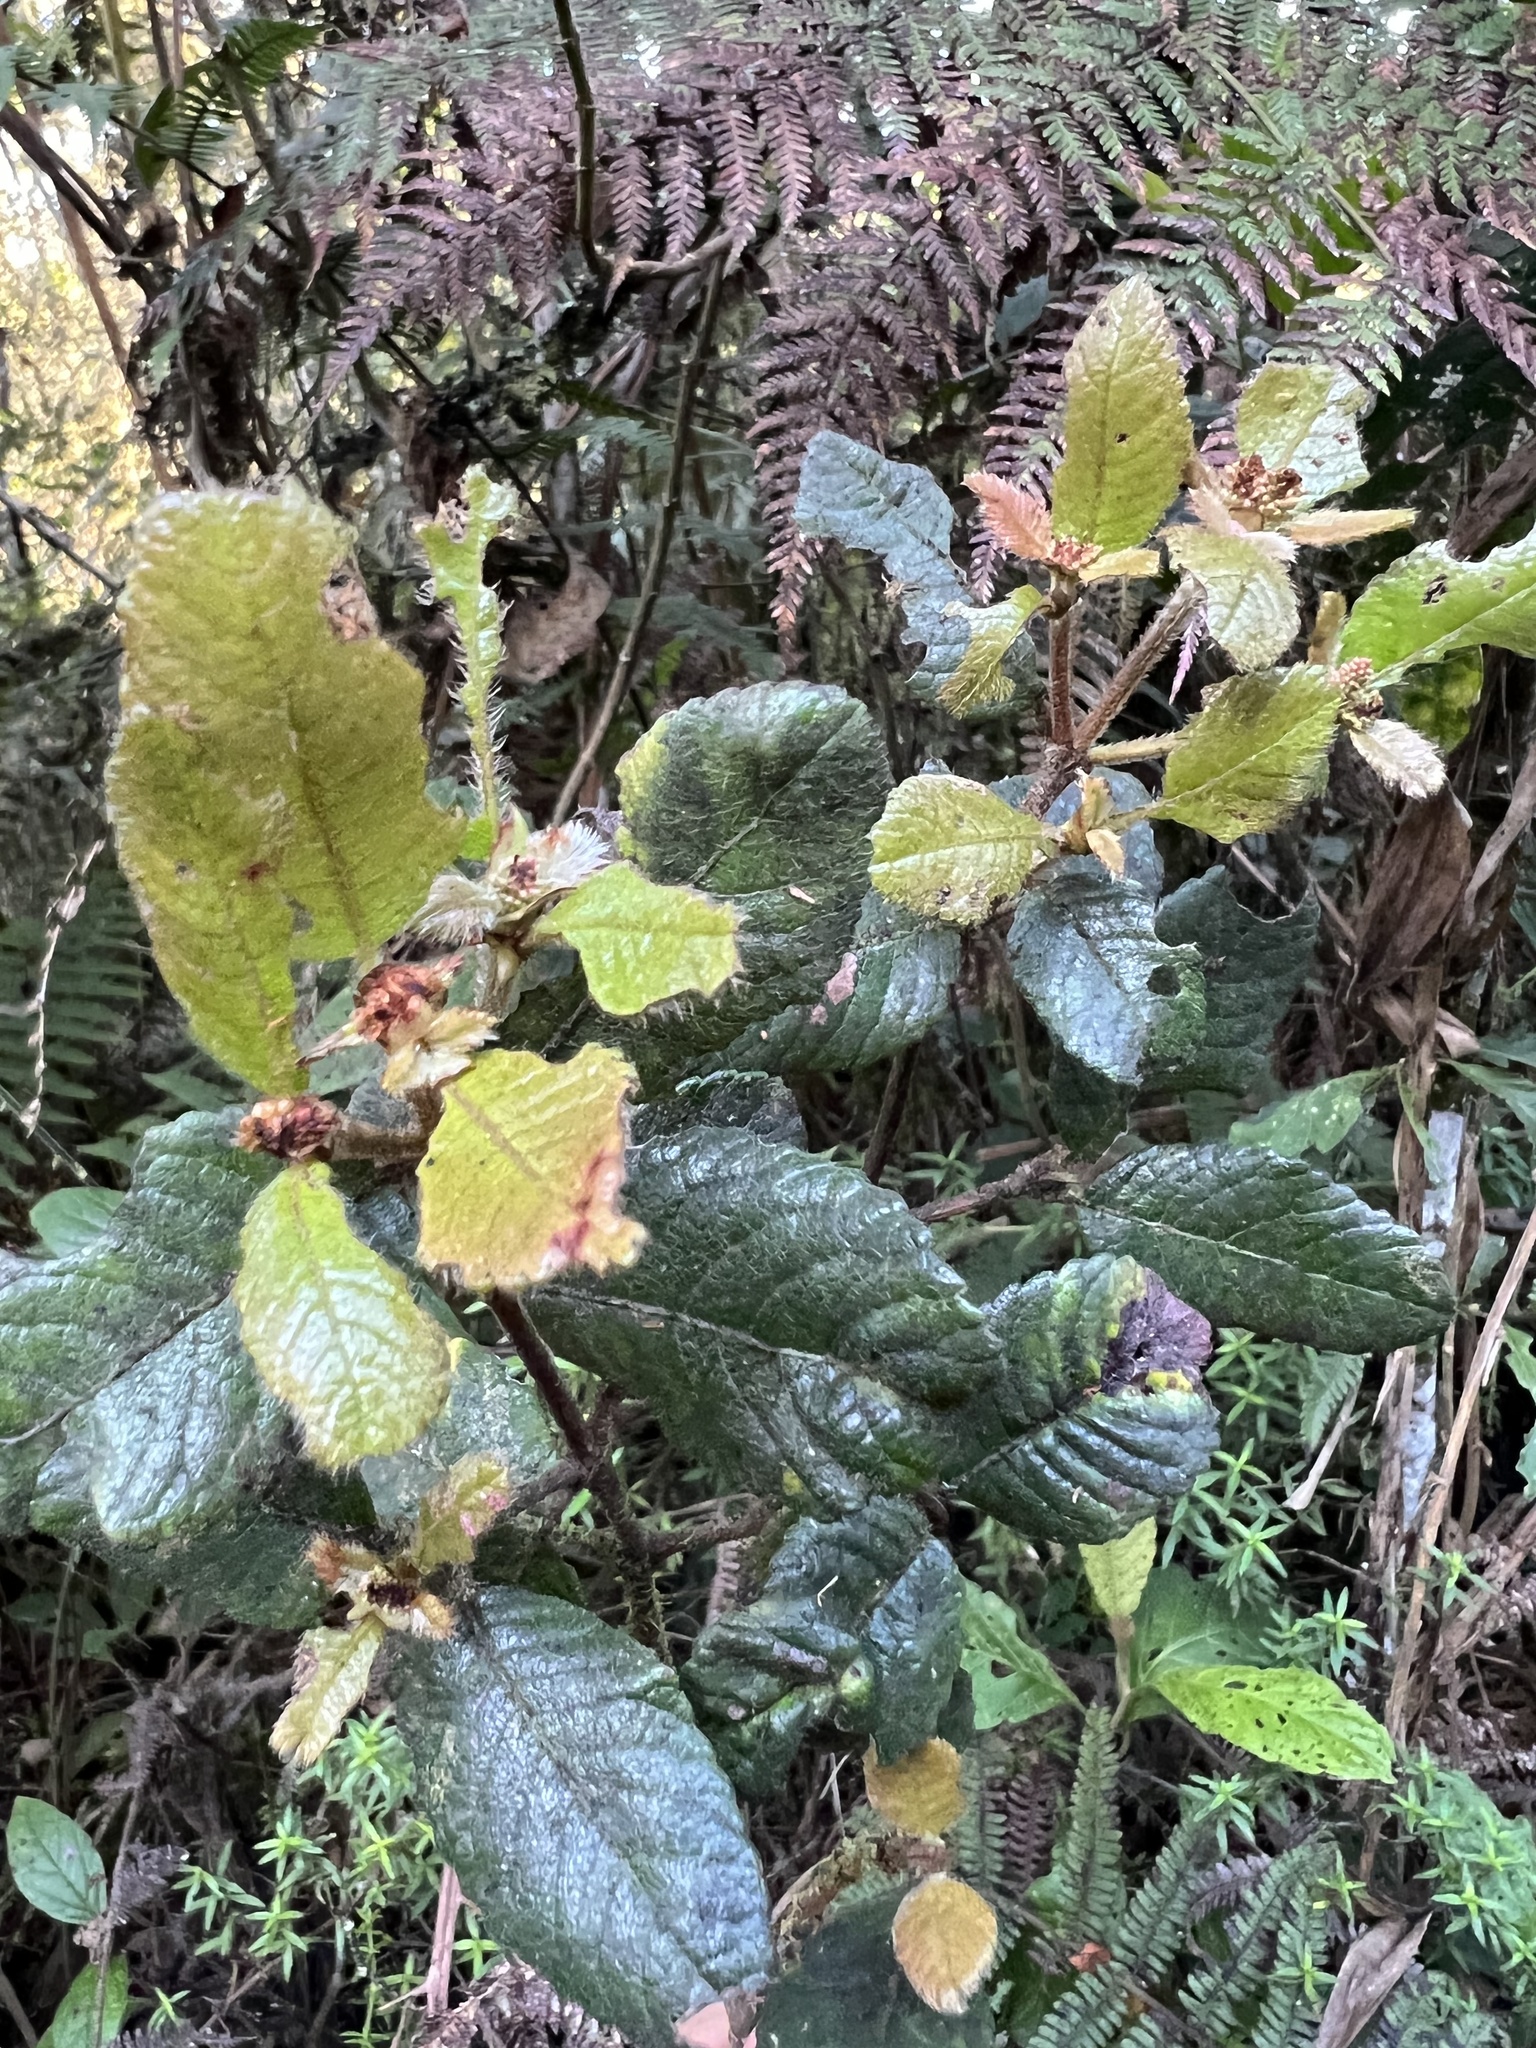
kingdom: Plantae
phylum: Tracheophyta
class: Magnoliopsida
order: Oxalidales
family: Cunoniaceae
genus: Weinmannia
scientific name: Weinmannia rollottii
